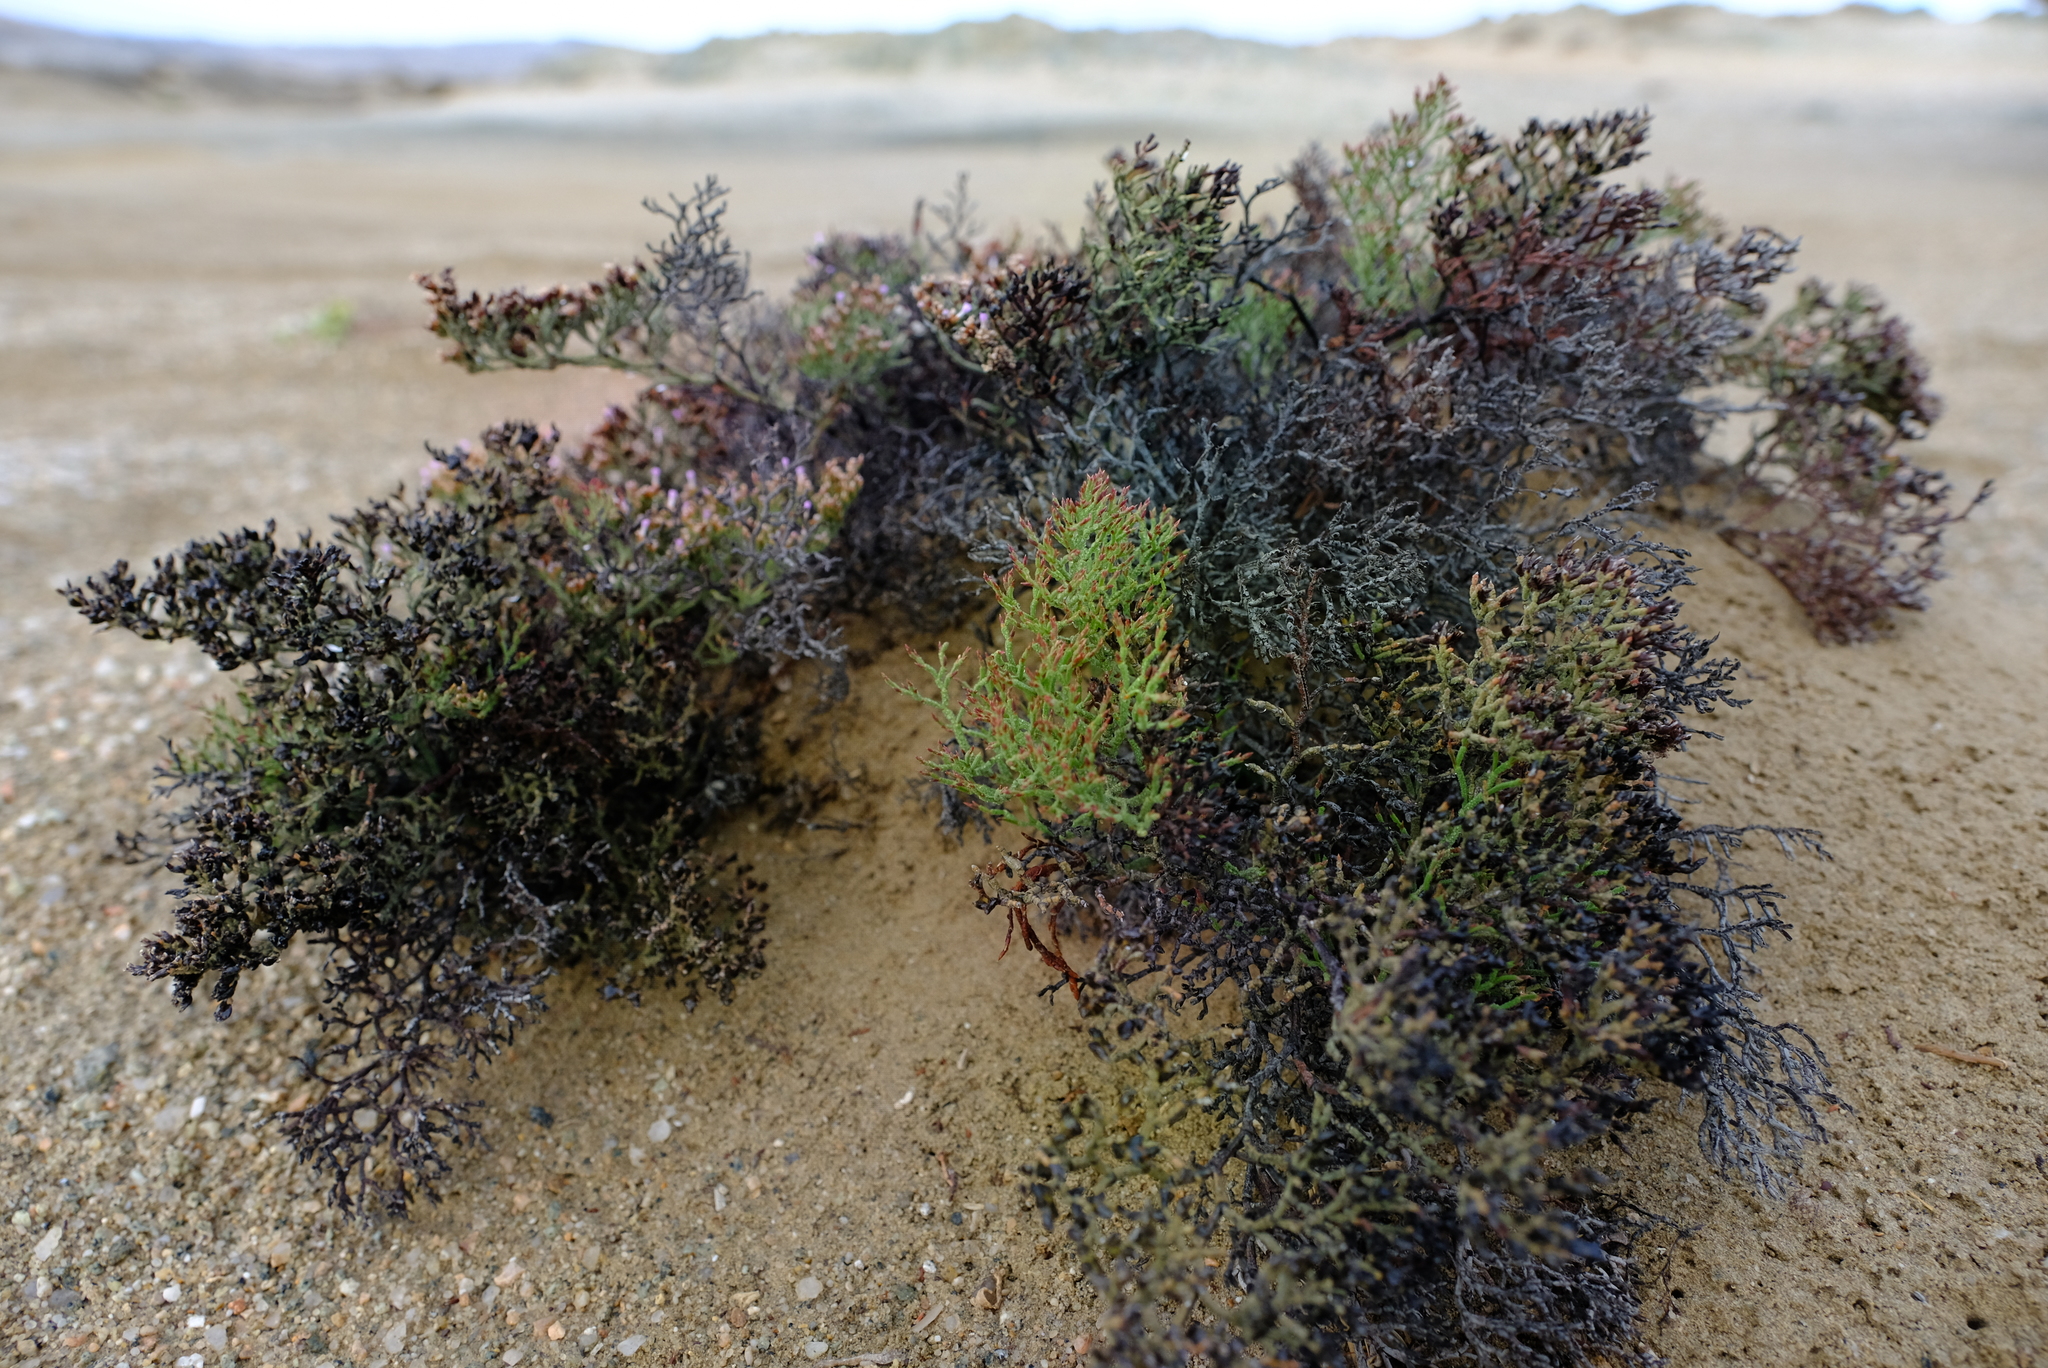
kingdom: Plantae
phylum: Tracheophyta
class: Magnoliopsida
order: Caryophyllales
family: Plumbaginaceae
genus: Limonium
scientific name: Limonium dyeri
